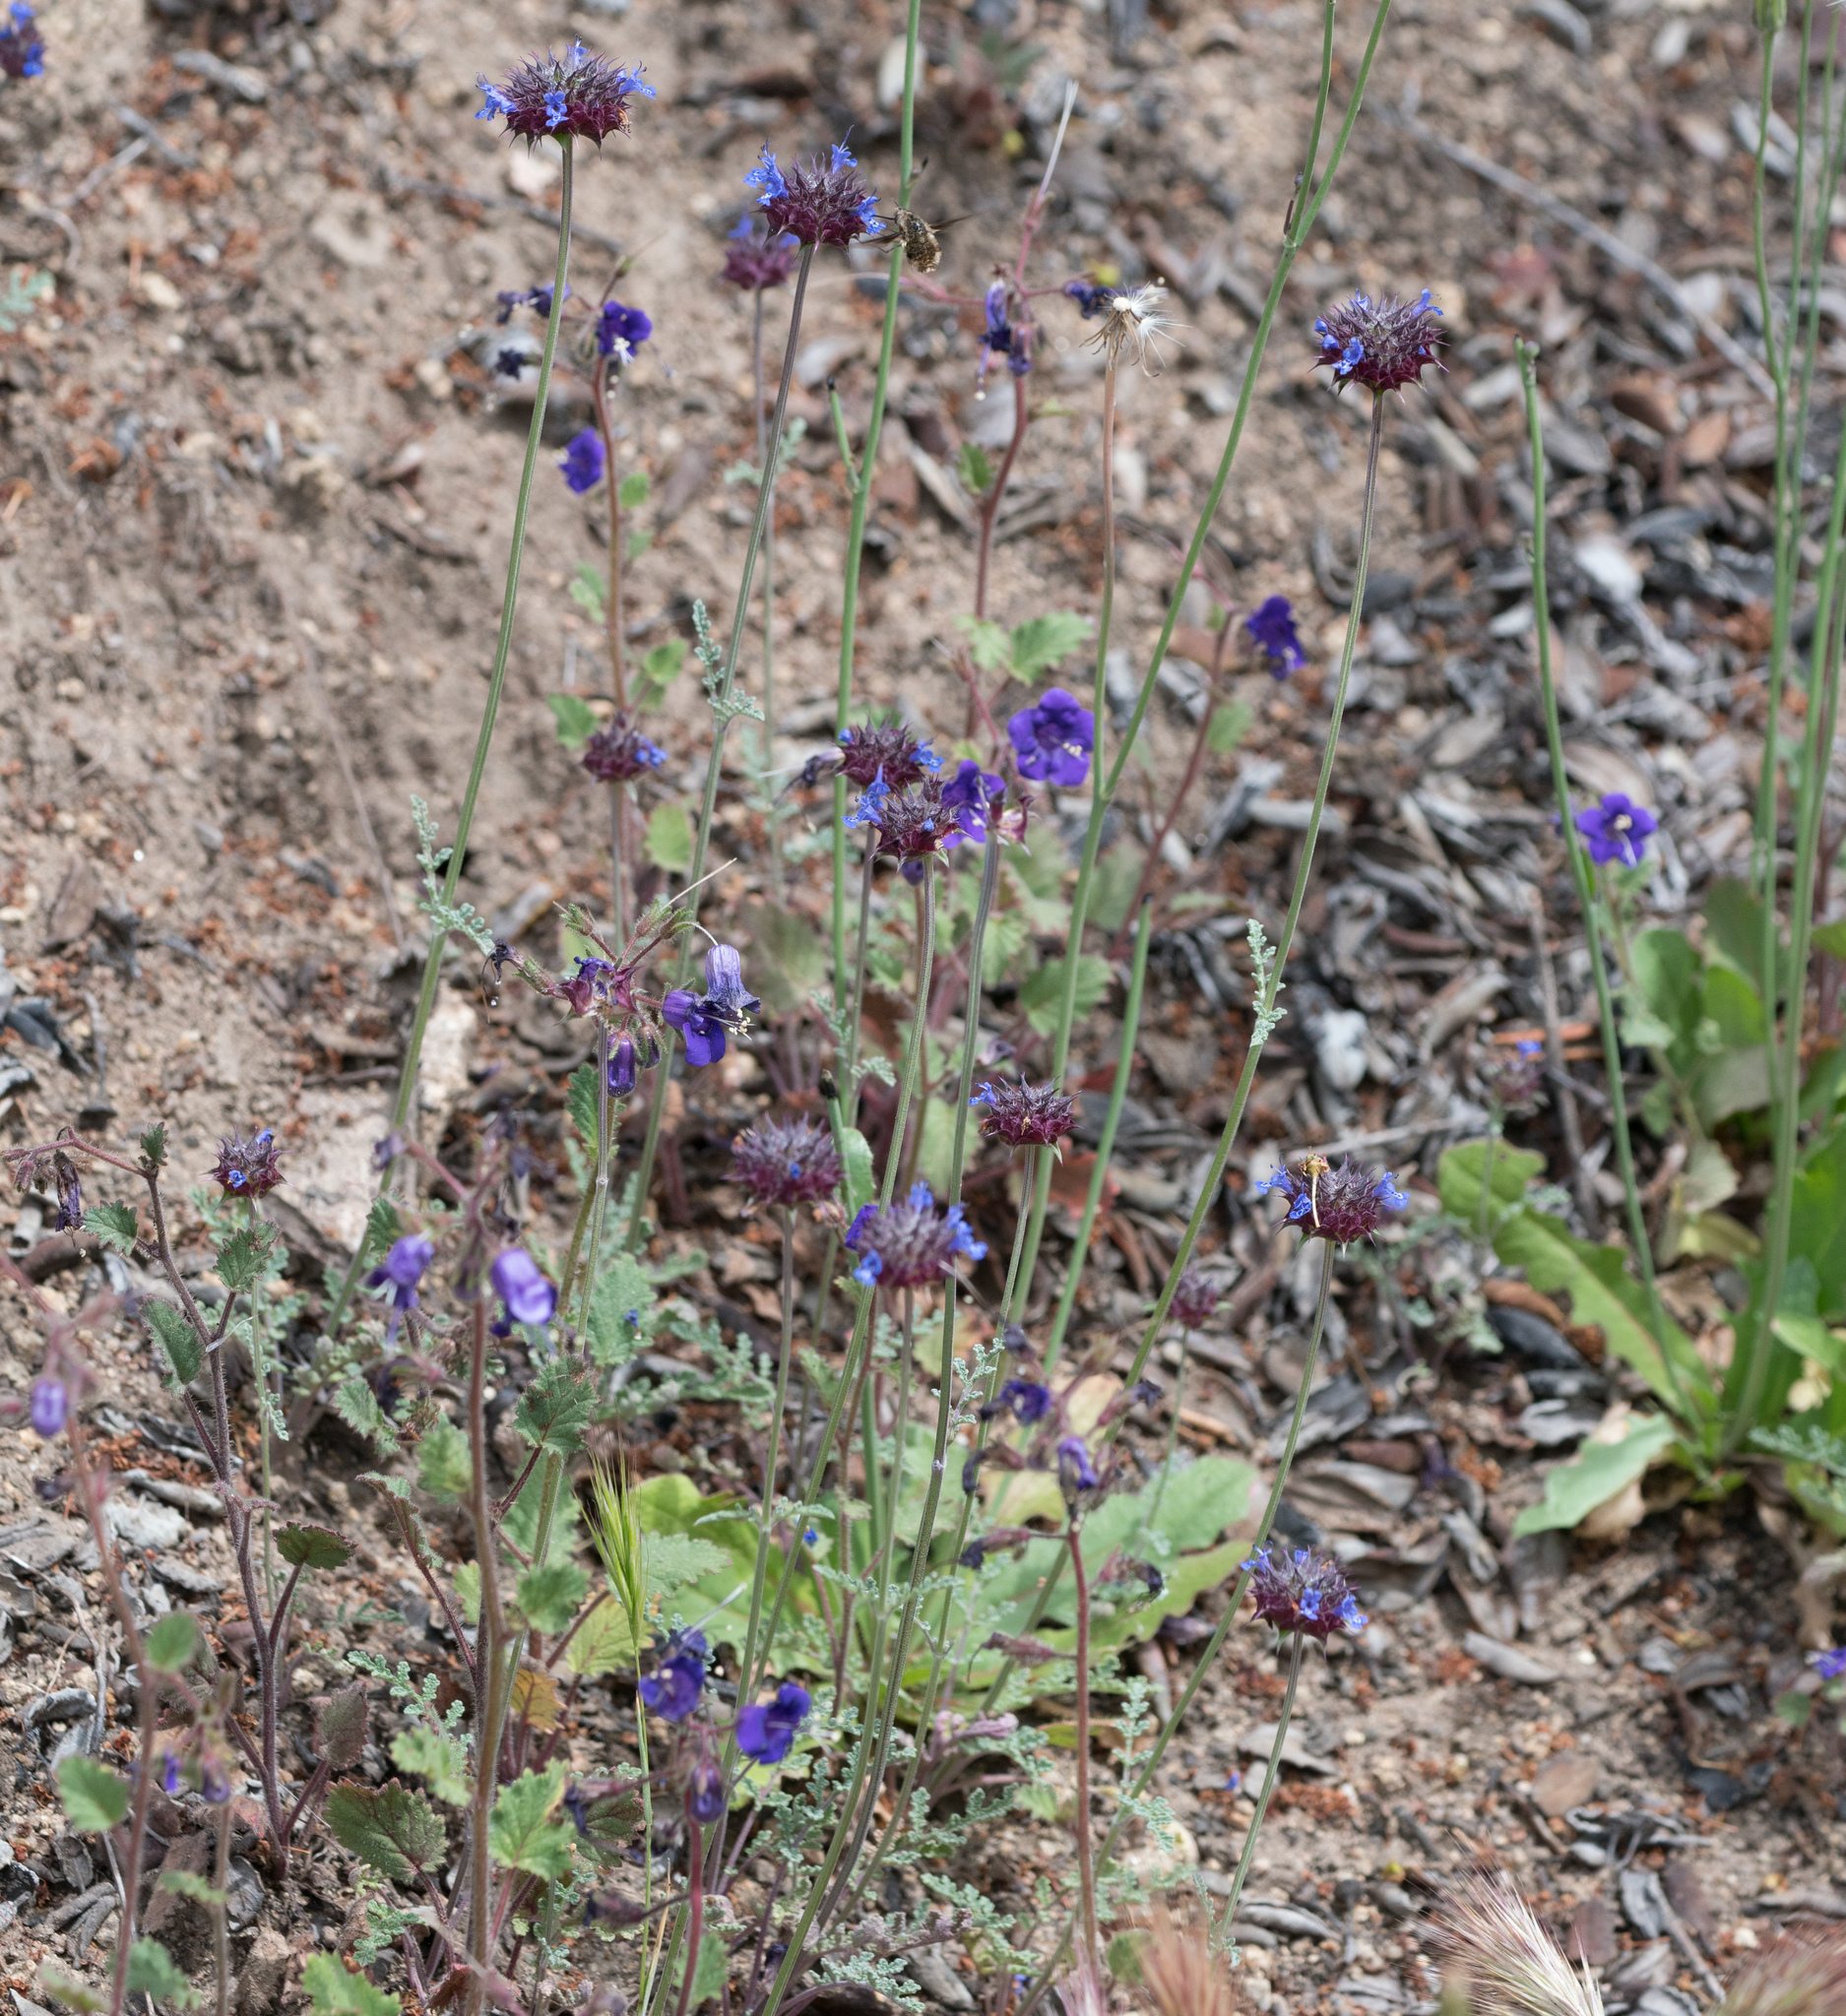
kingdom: Plantae
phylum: Tracheophyta
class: Magnoliopsida
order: Lamiales
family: Lamiaceae
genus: Salvia
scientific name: Salvia columbariae
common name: Chia
